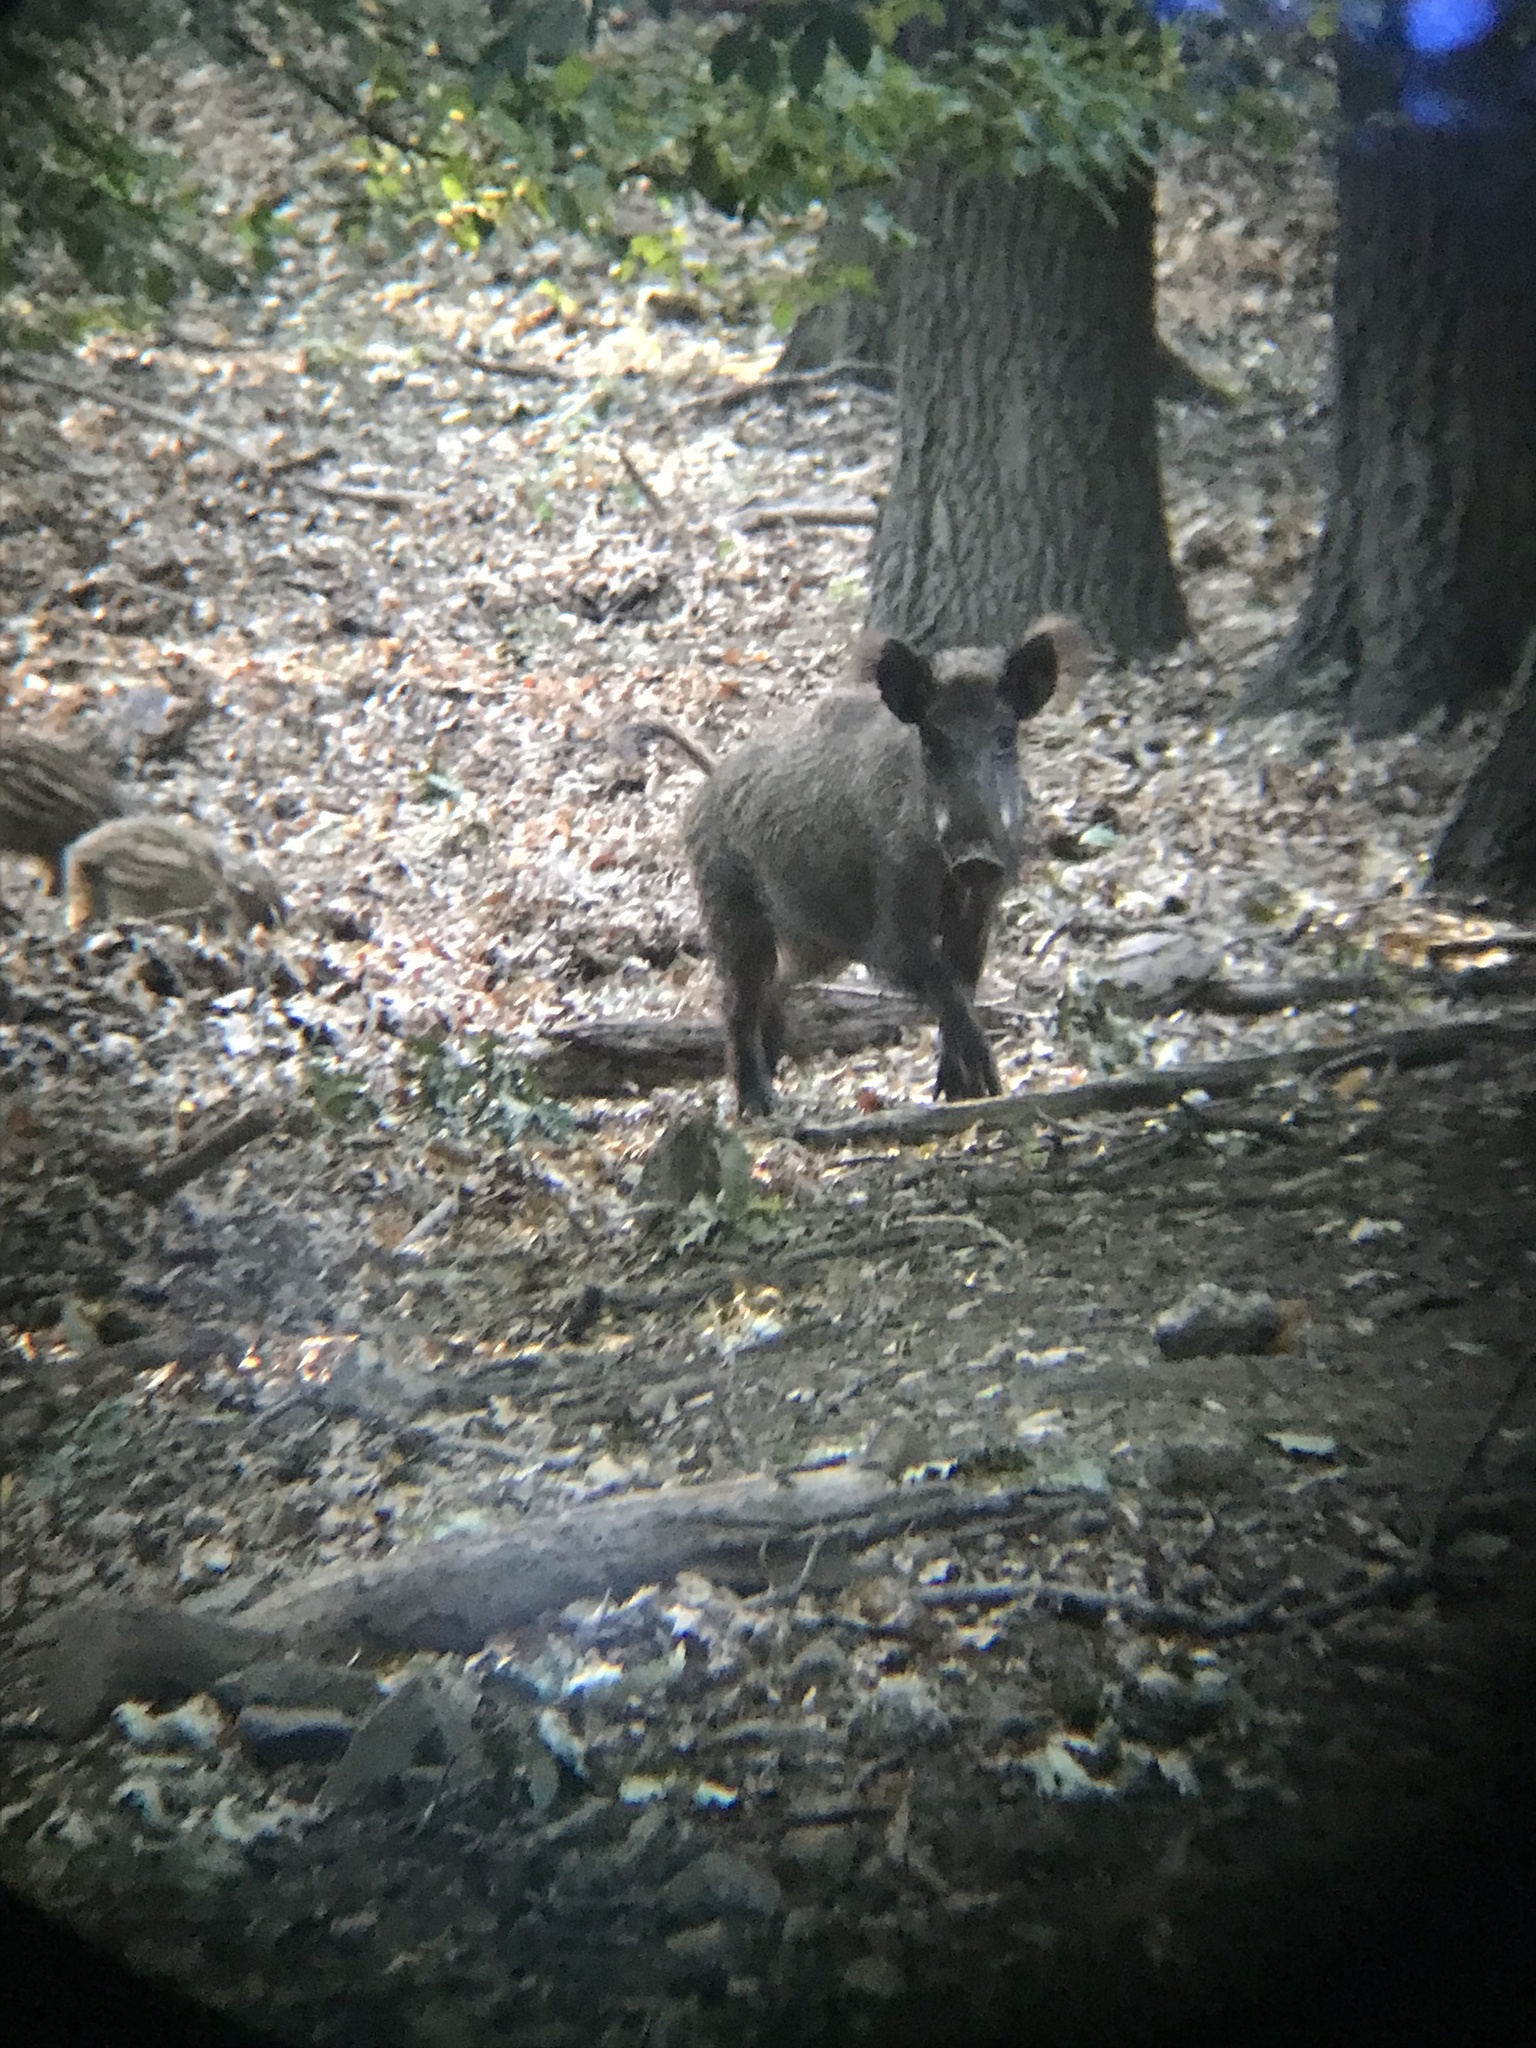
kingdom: Animalia
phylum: Chordata
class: Mammalia
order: Artiodactyla
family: Suidae
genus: Sus
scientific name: Sus scrofa
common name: Wild boar
